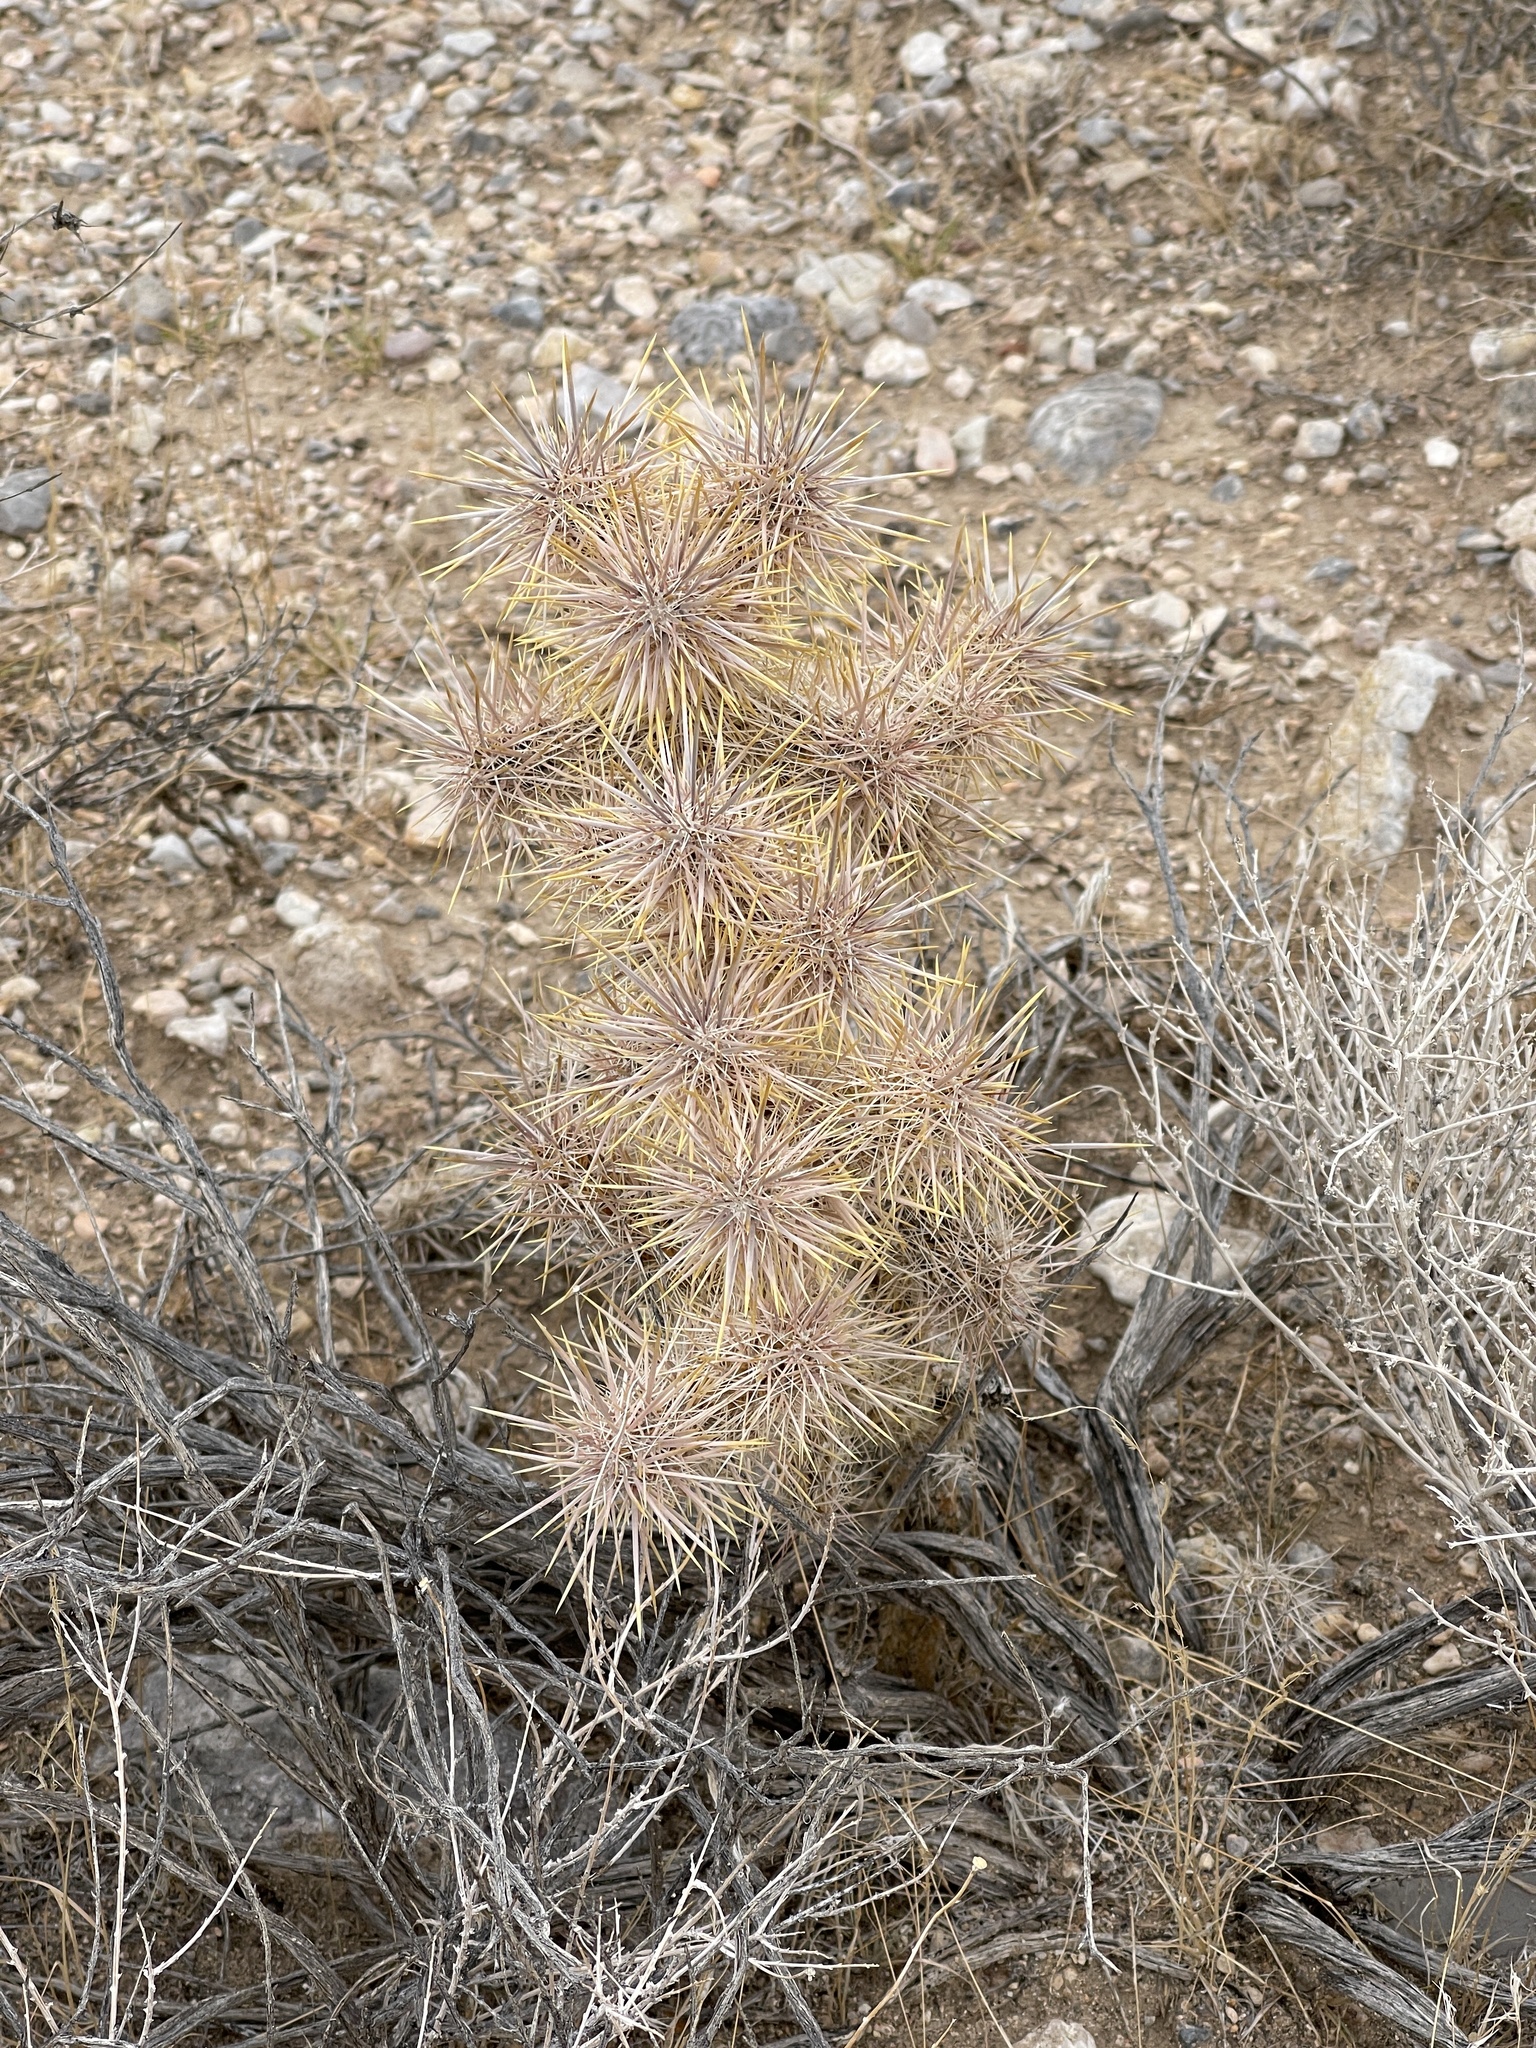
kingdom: Plantae
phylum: Tracheophyta
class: Magnoliopsida
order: Caryophyllales
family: Cactaceae
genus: Cylindropuntia
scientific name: Cylindropuntia echinocarpa
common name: Ground cholla
